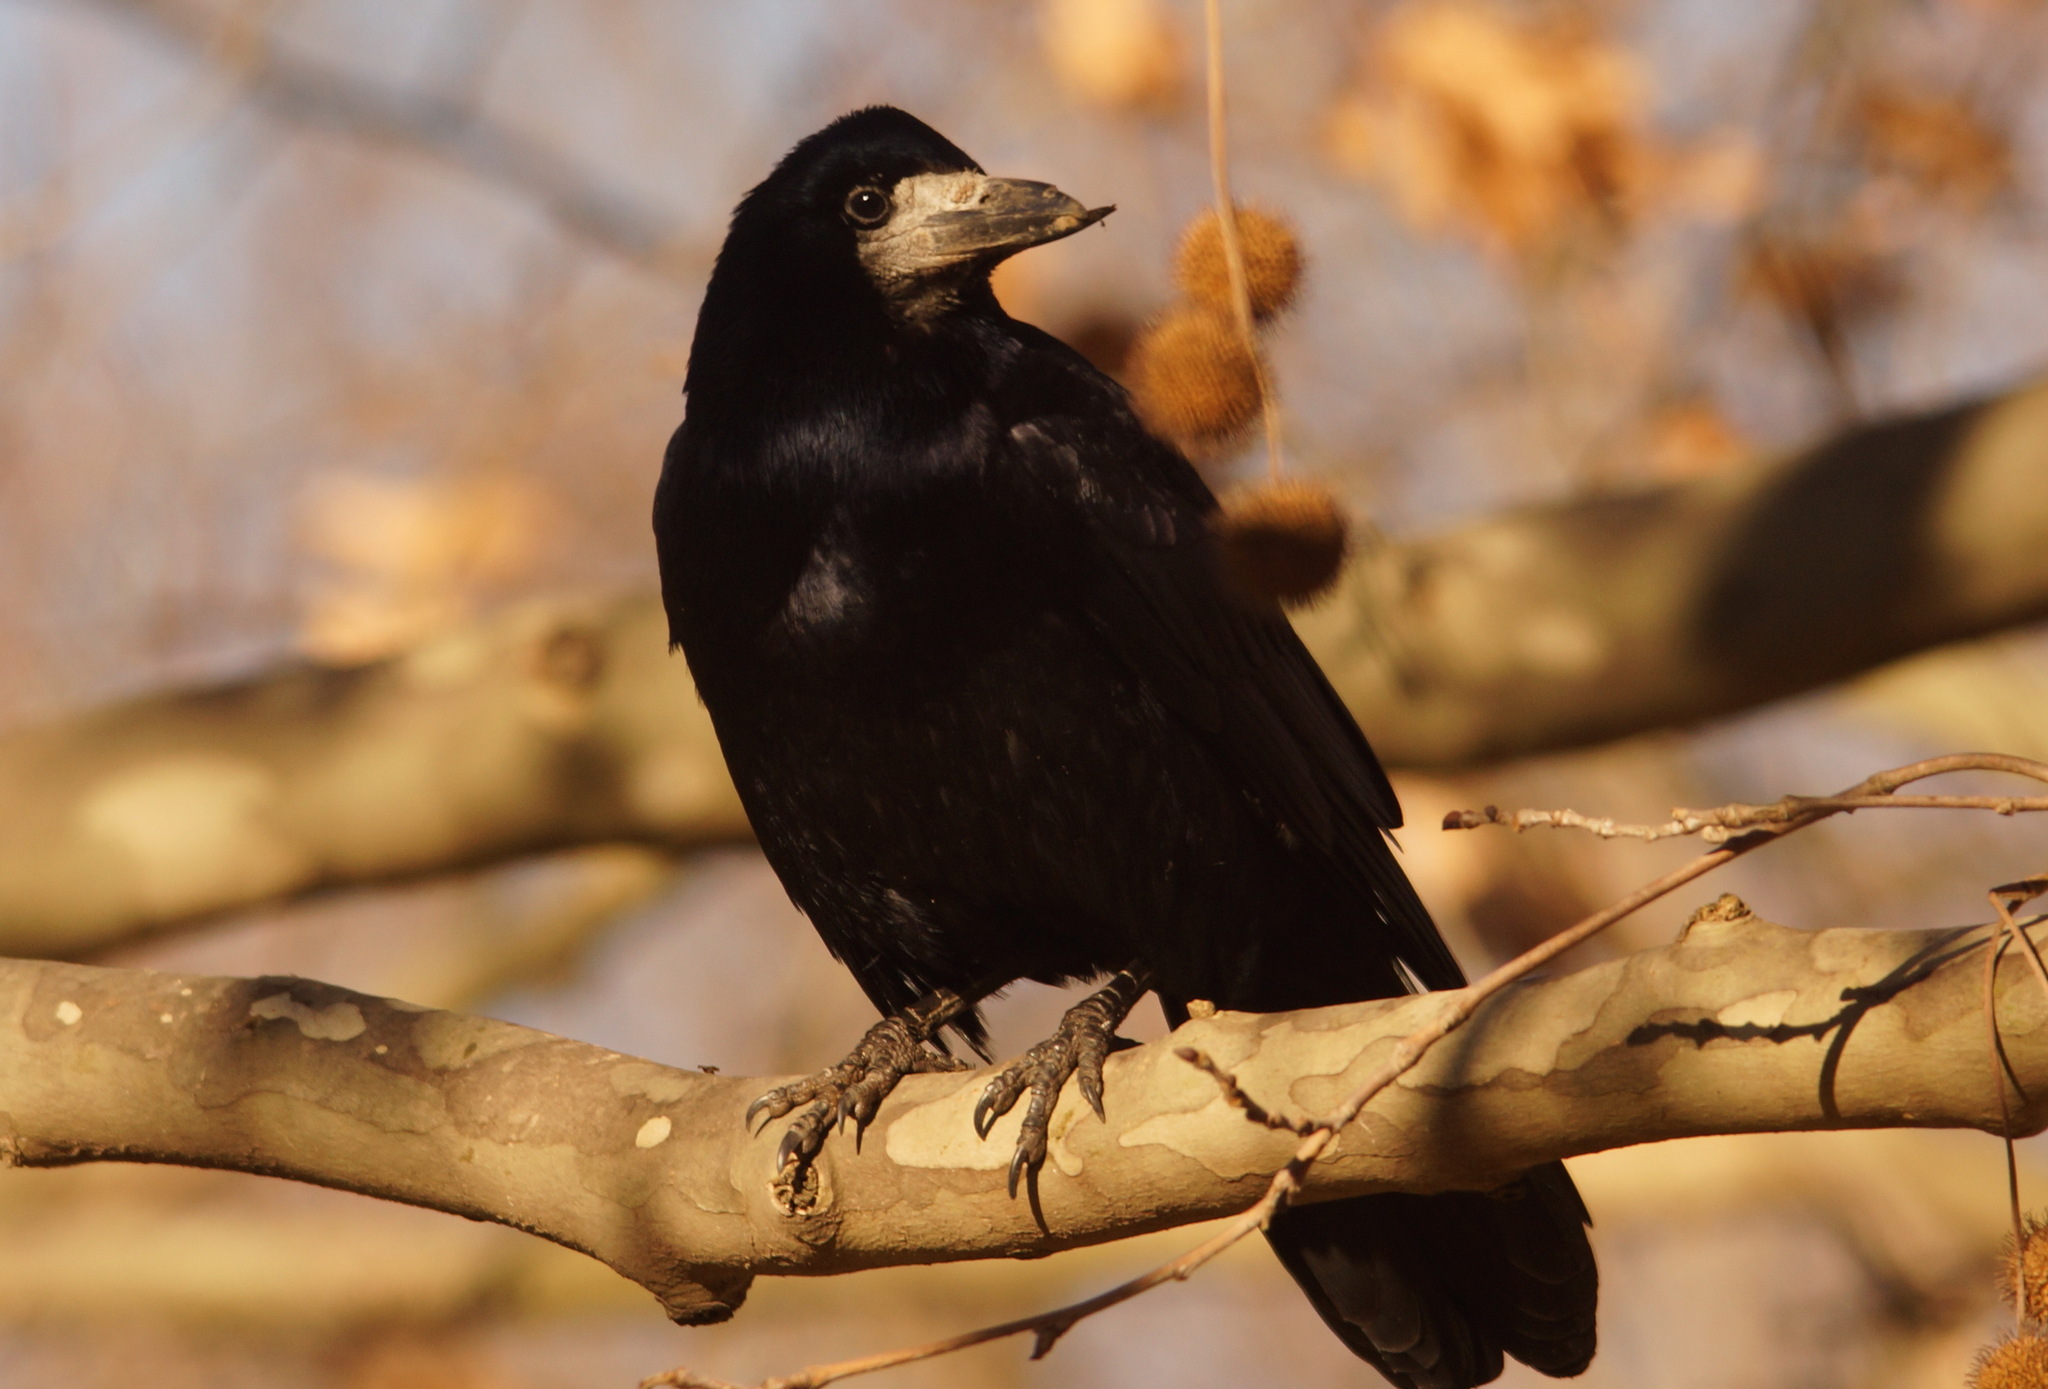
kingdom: Animalia
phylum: Chordata
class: Aves
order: Passeriformes
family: Corvidae
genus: Corvus
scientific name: Corvus frugilegus
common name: Rook
